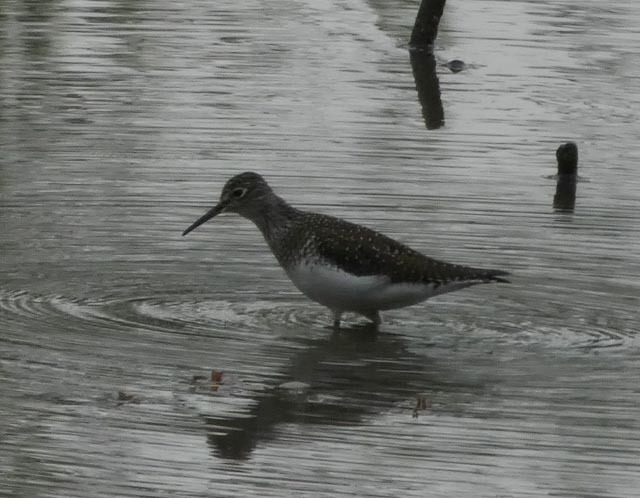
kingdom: Animalia
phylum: Chordata
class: Aves
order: Charadriiformes
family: Scolopacidae
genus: Tringa
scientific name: Tringa solitaria
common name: Solitary sandpiper
